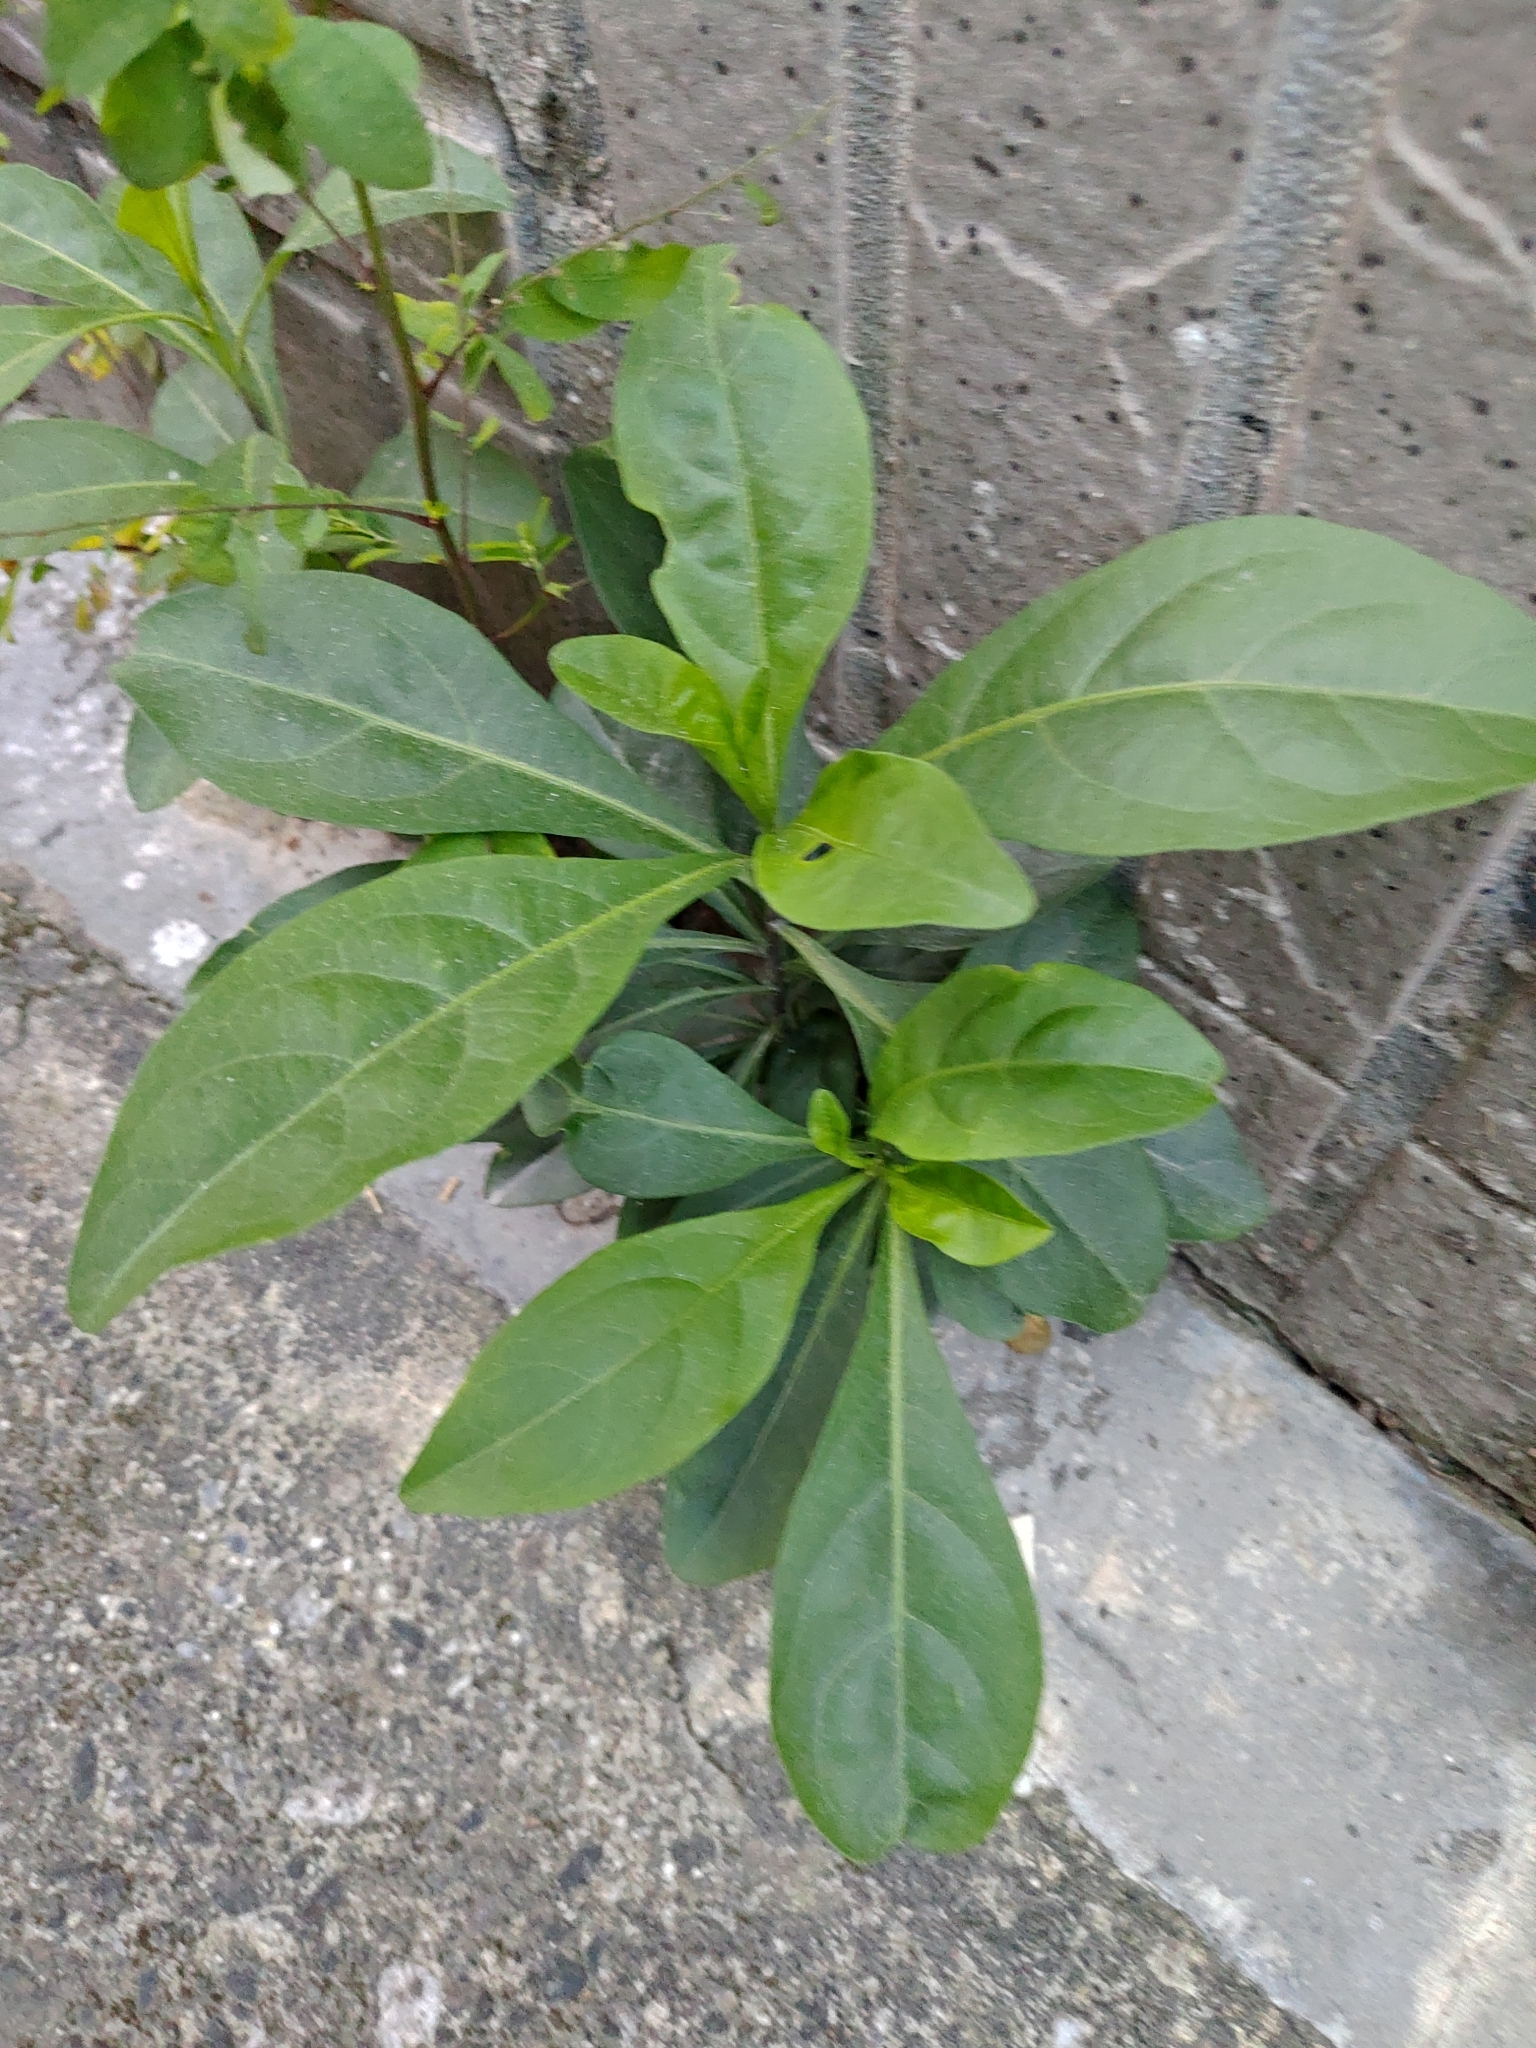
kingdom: Plantae
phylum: Tracheophyta
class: Magnoliopsida
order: Solanales
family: Solanaceae
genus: Solanum
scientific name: Solanum diphyllum
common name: Twoleaf nightshade
